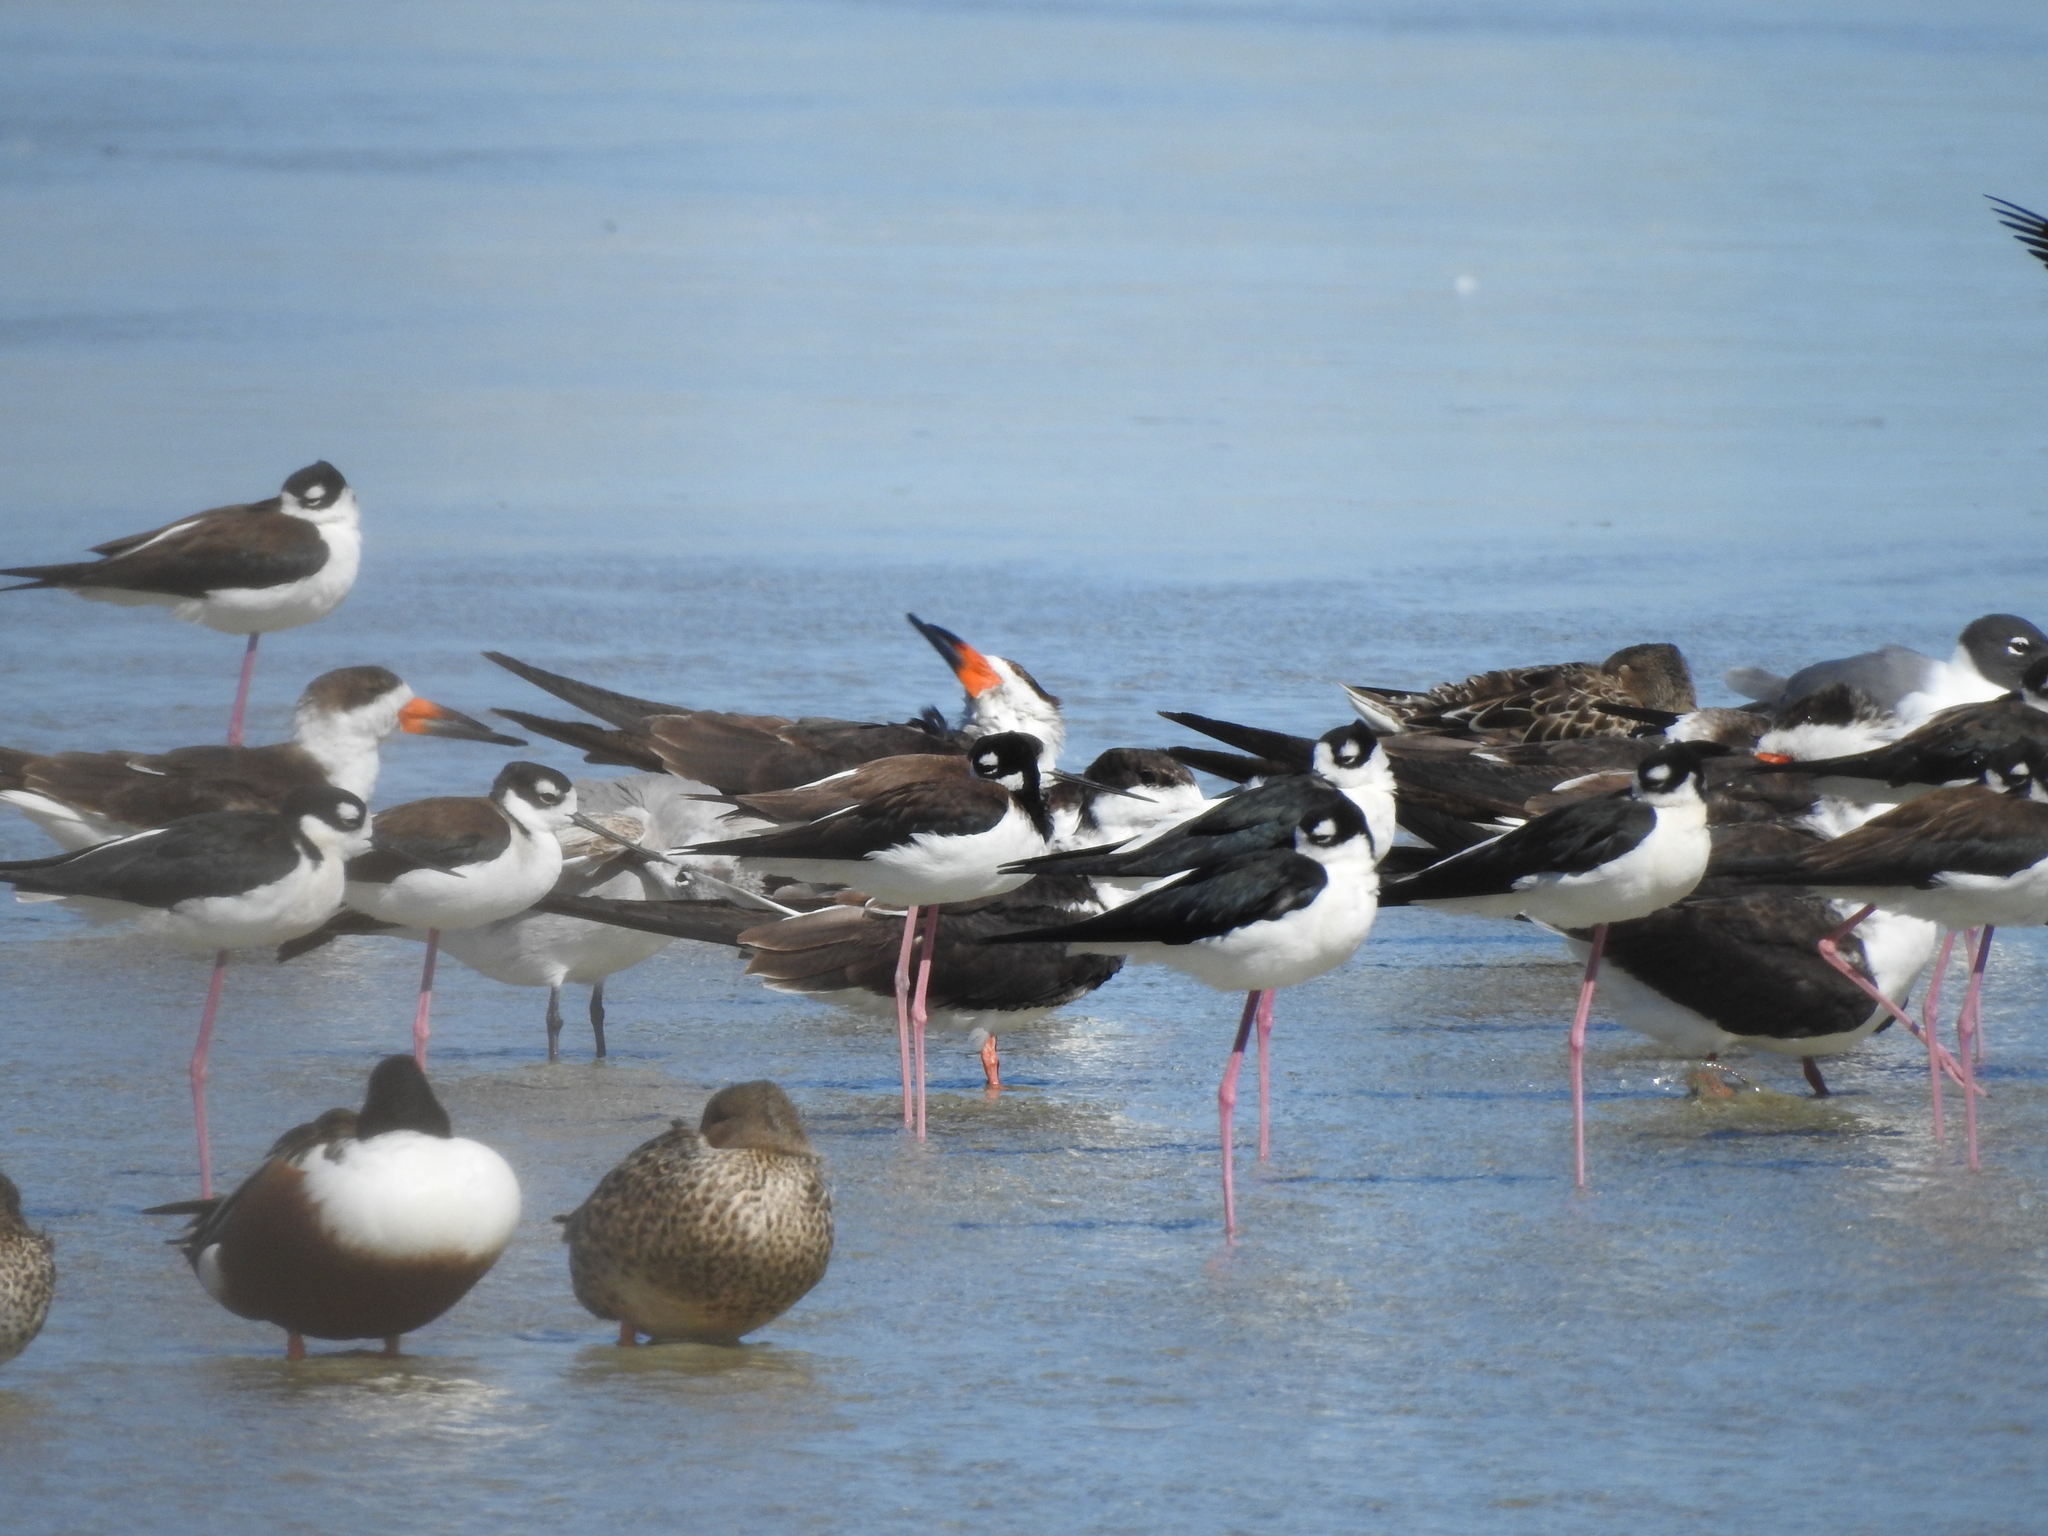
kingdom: Animalia
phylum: Chordata
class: Aves
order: Charadriiformes
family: Recurvirostridae
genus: Himantopus
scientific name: Himantopus mexicanus
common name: Black-necked stilt
